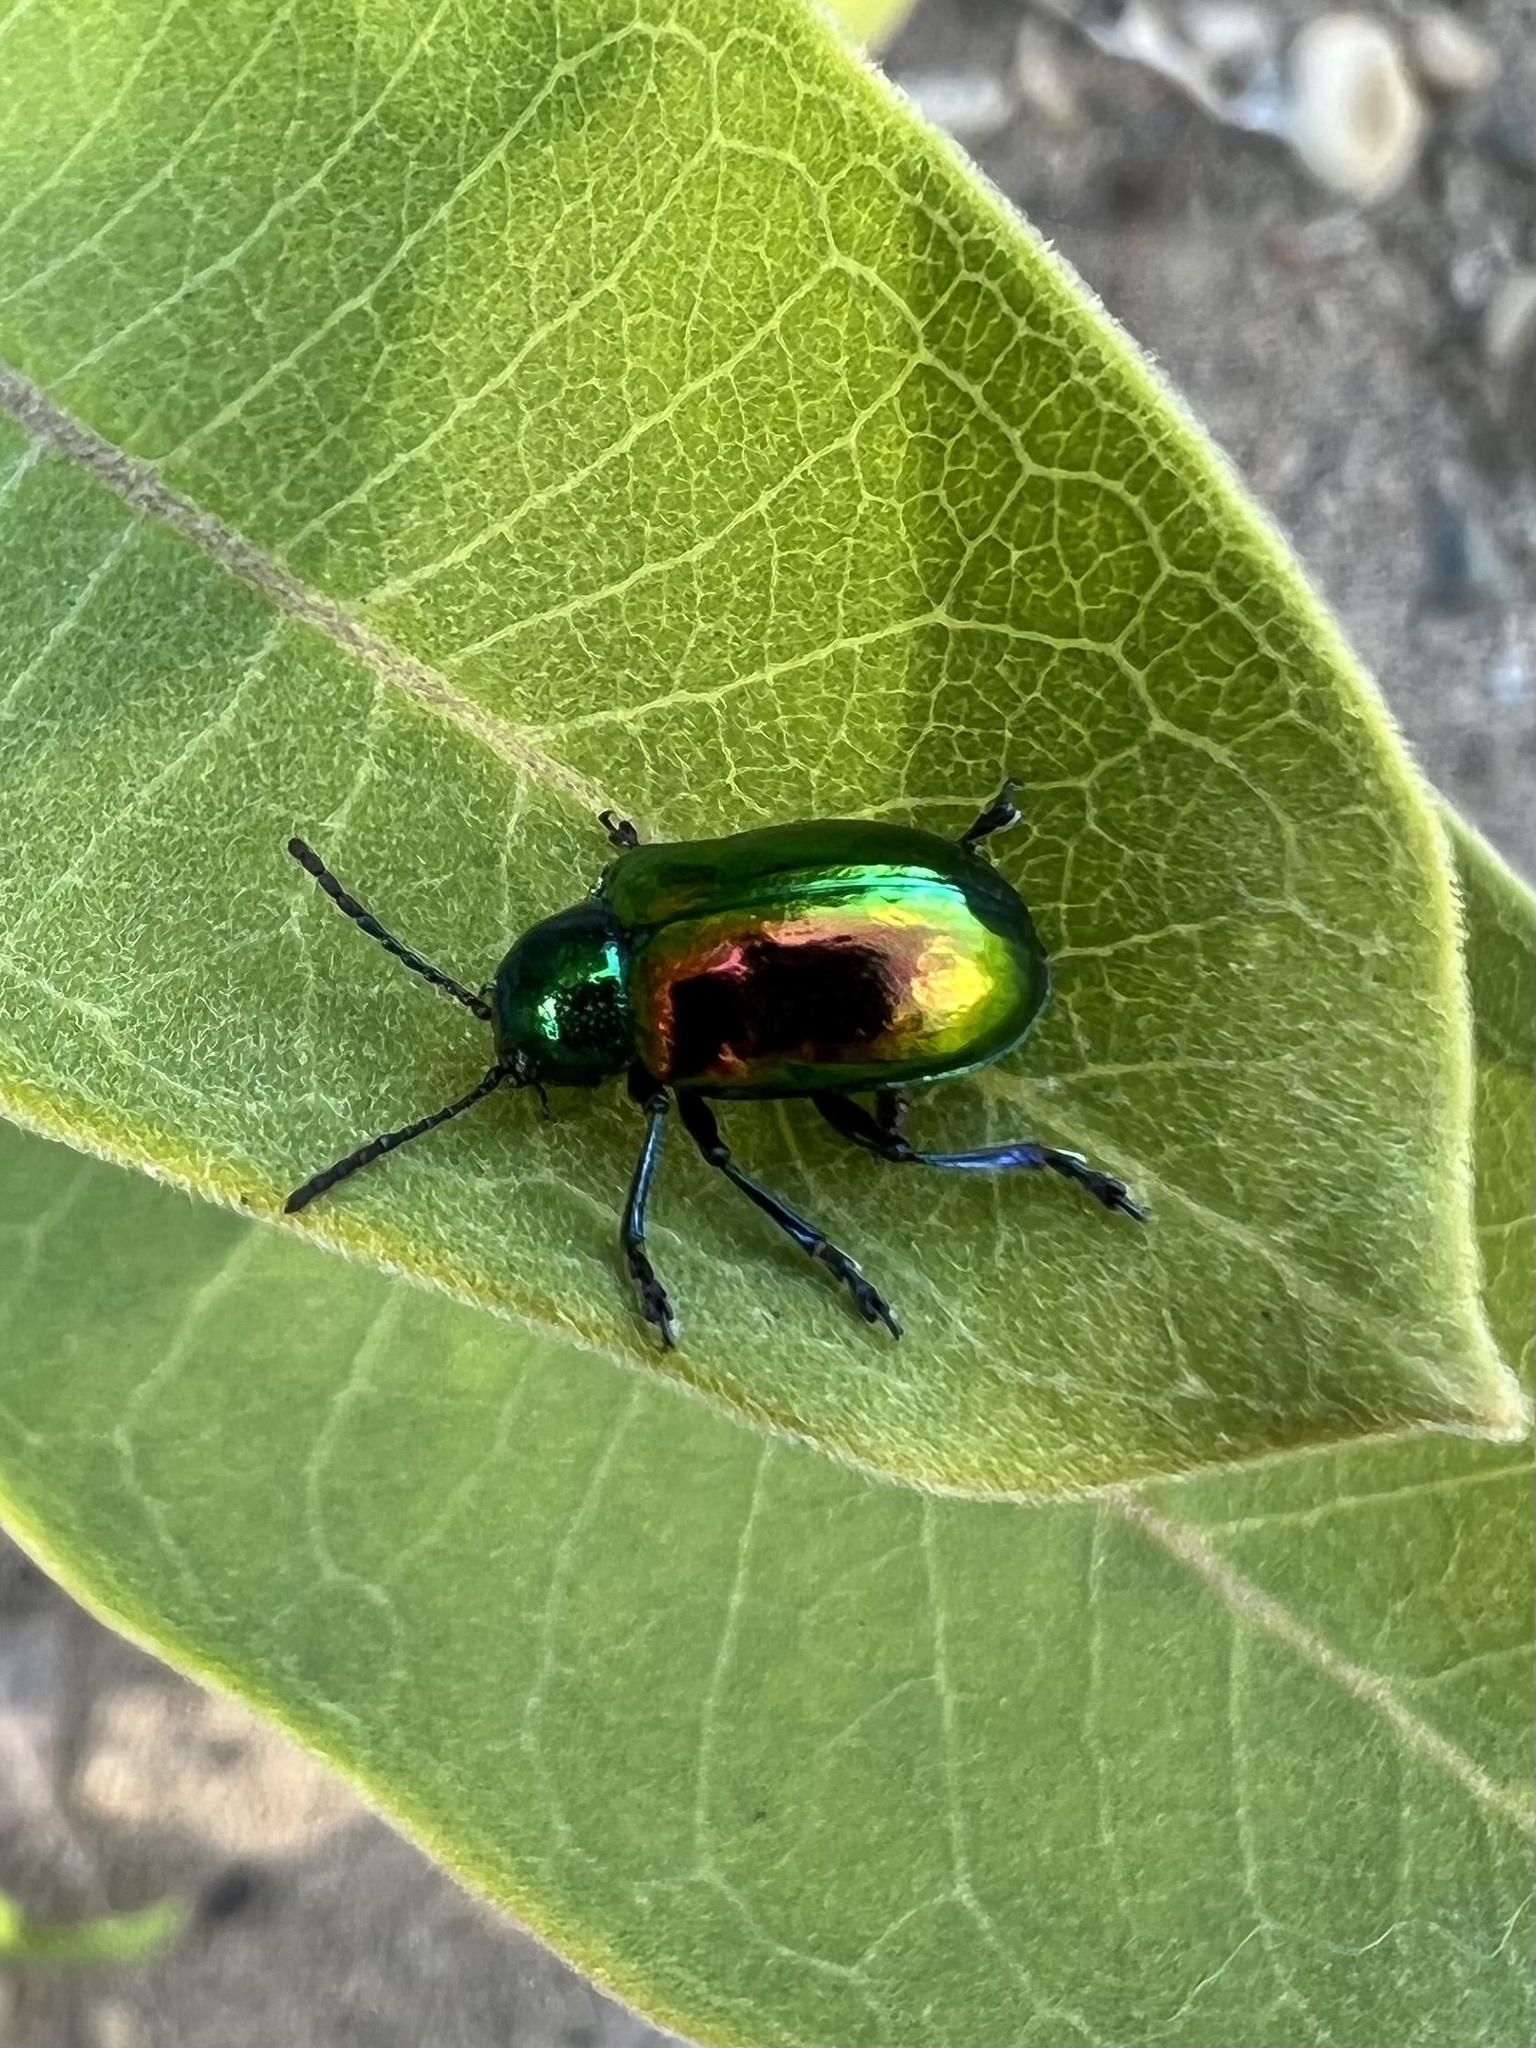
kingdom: Animalia
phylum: Arthropoda
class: Insecta
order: Coleoptera
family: Chrysomelidae
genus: Chrysochus
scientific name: Chrysochus auratus
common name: Dogbane leaf beetle
